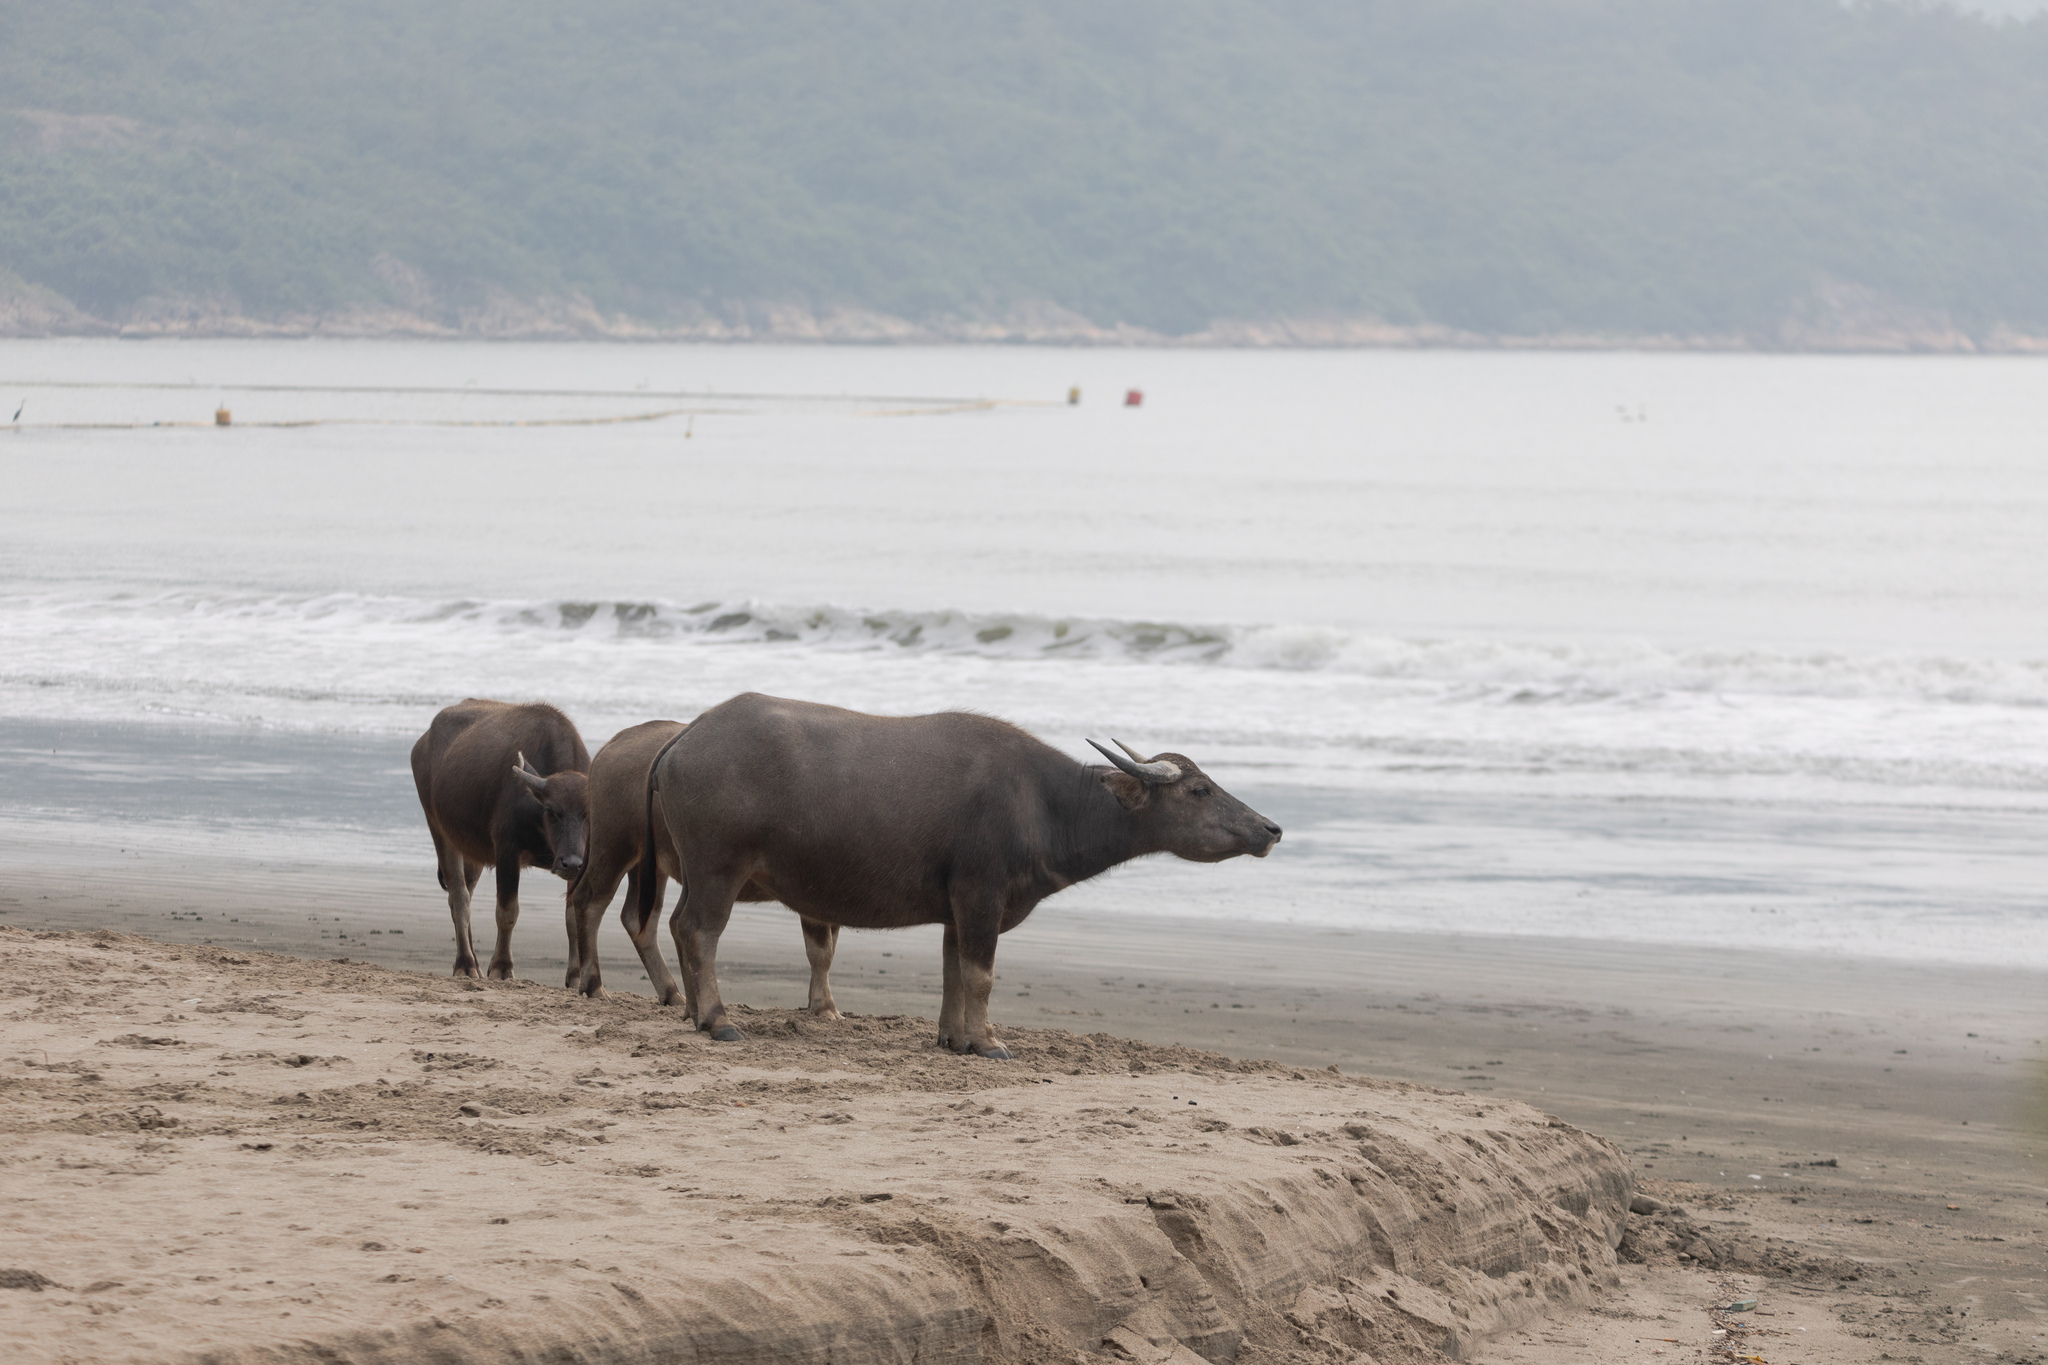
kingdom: Animalia
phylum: Chordata
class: Mammalia
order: Artiodactyla
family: Bovidae
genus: Bubalus
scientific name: Bubalus bubalis
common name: Water buffalo
